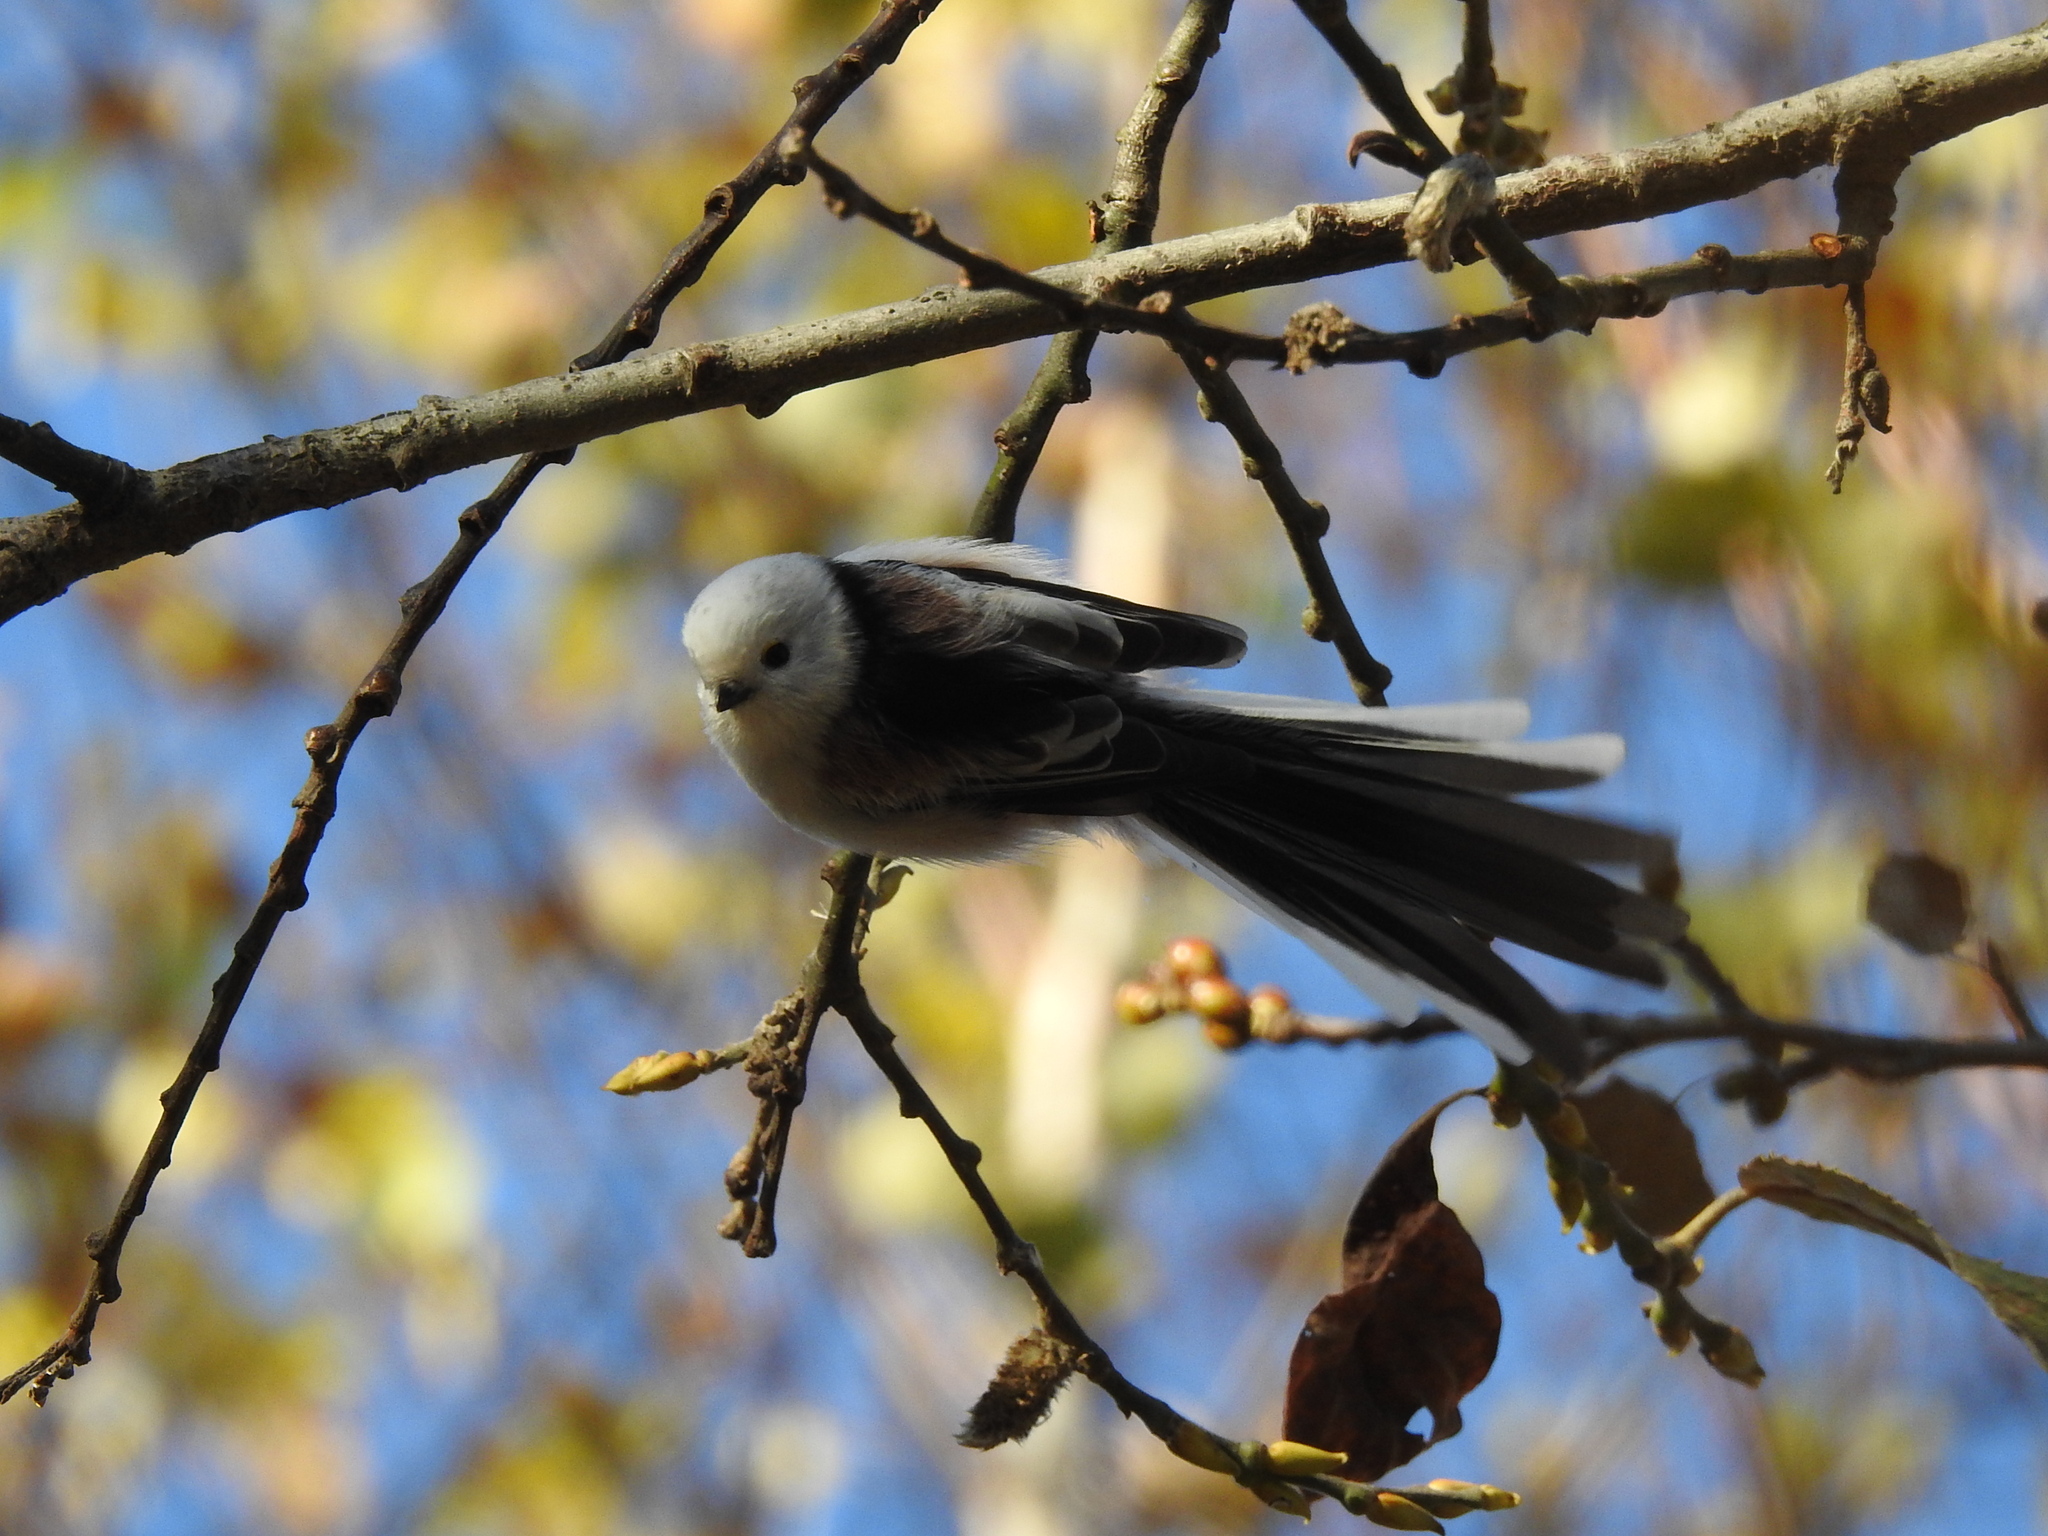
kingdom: Animalia
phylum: Chordata
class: Aves
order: Passeriformes
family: Aegithalidae
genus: Aegithalos
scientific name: Aegithalos caudatus
